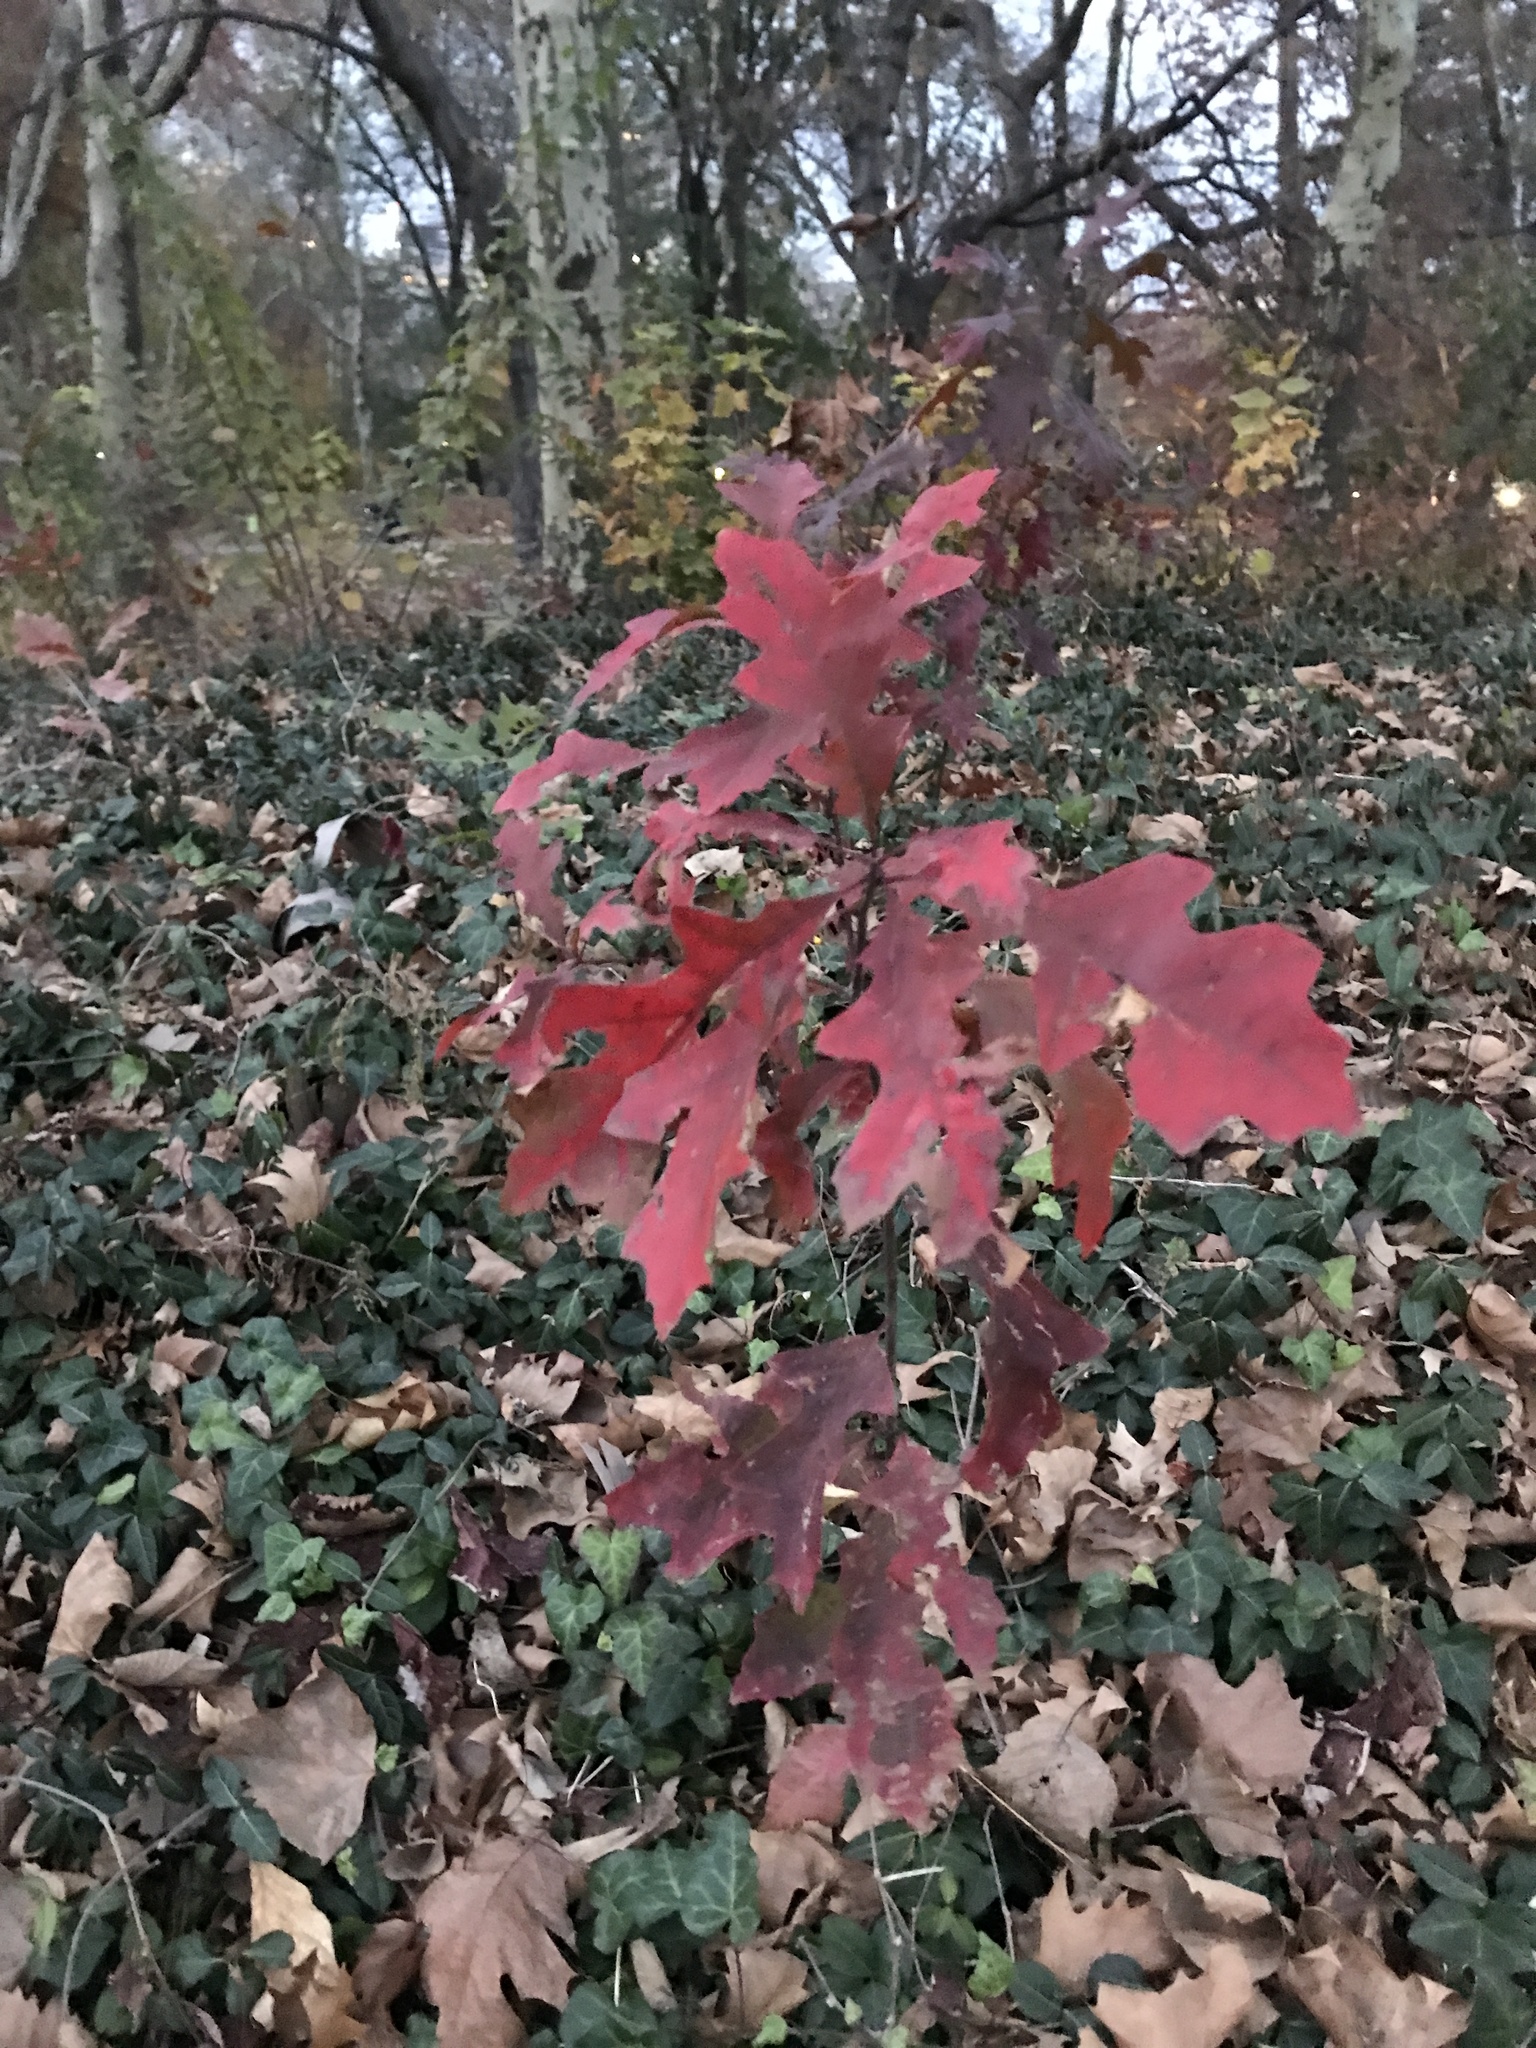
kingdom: Plantae
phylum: Tracheophyta
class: Magnoliopsida
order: Fagales
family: Fagaceae
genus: Quercus
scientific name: Quercus coccinea
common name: Scarlet oak
